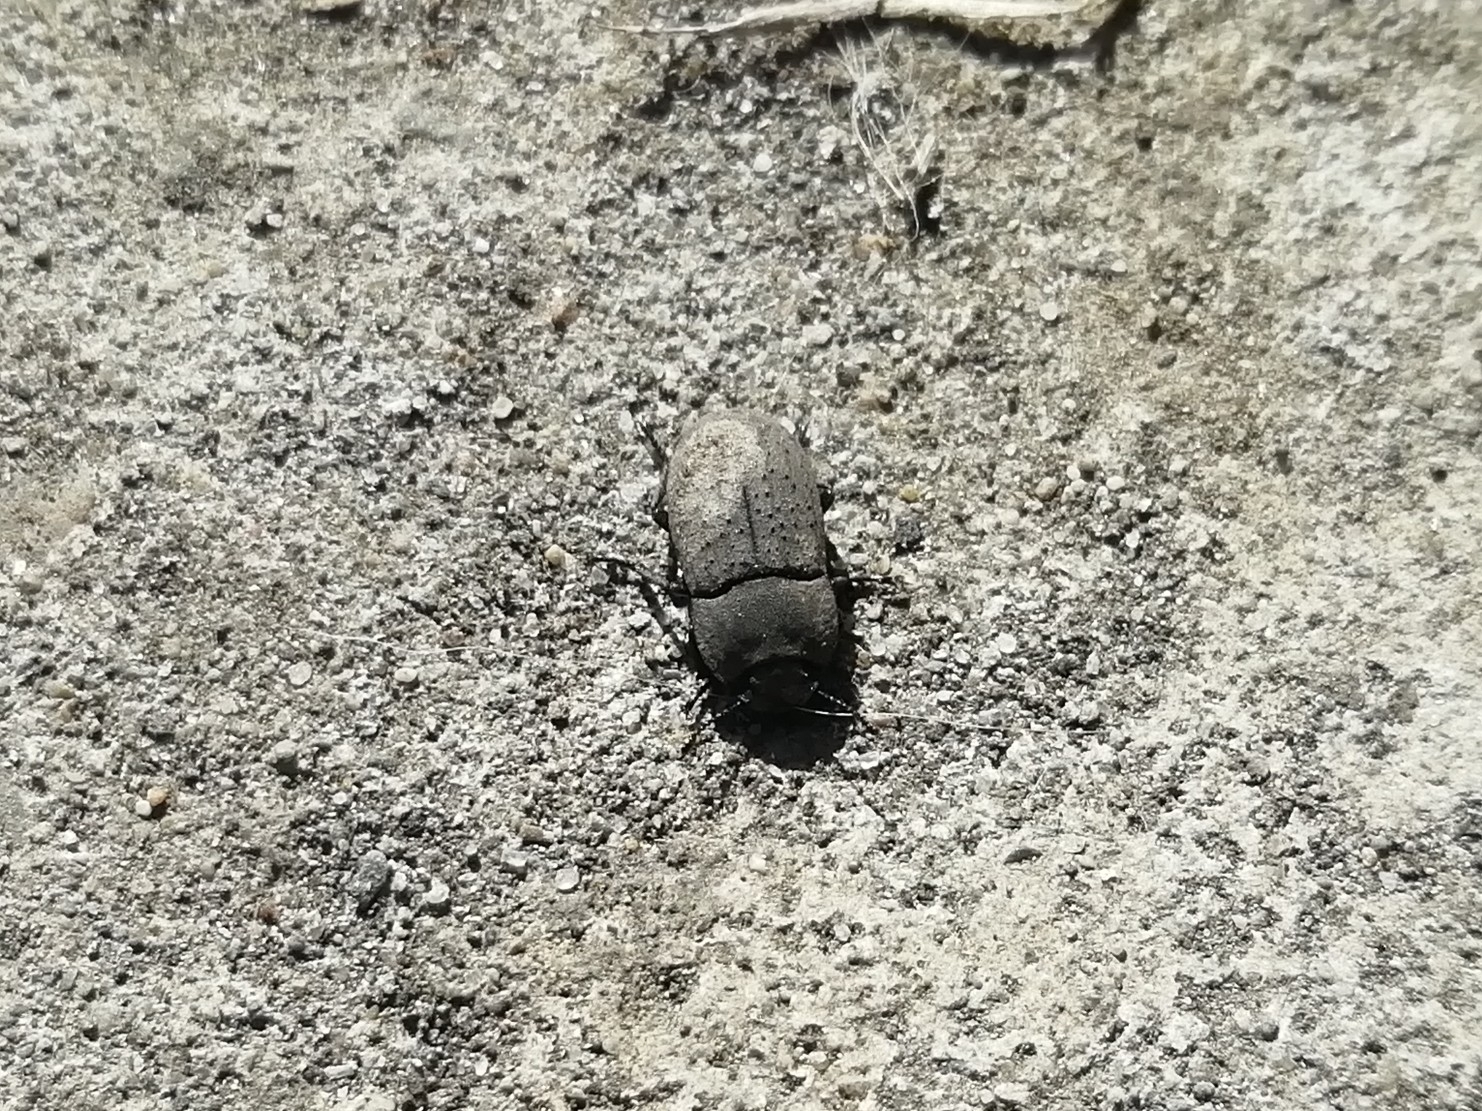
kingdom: Animalia
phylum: Arthropoda
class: Insecta
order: Coleoptera
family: Tenebrionidae
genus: Opatrum
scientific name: Opatrum sabulosum
